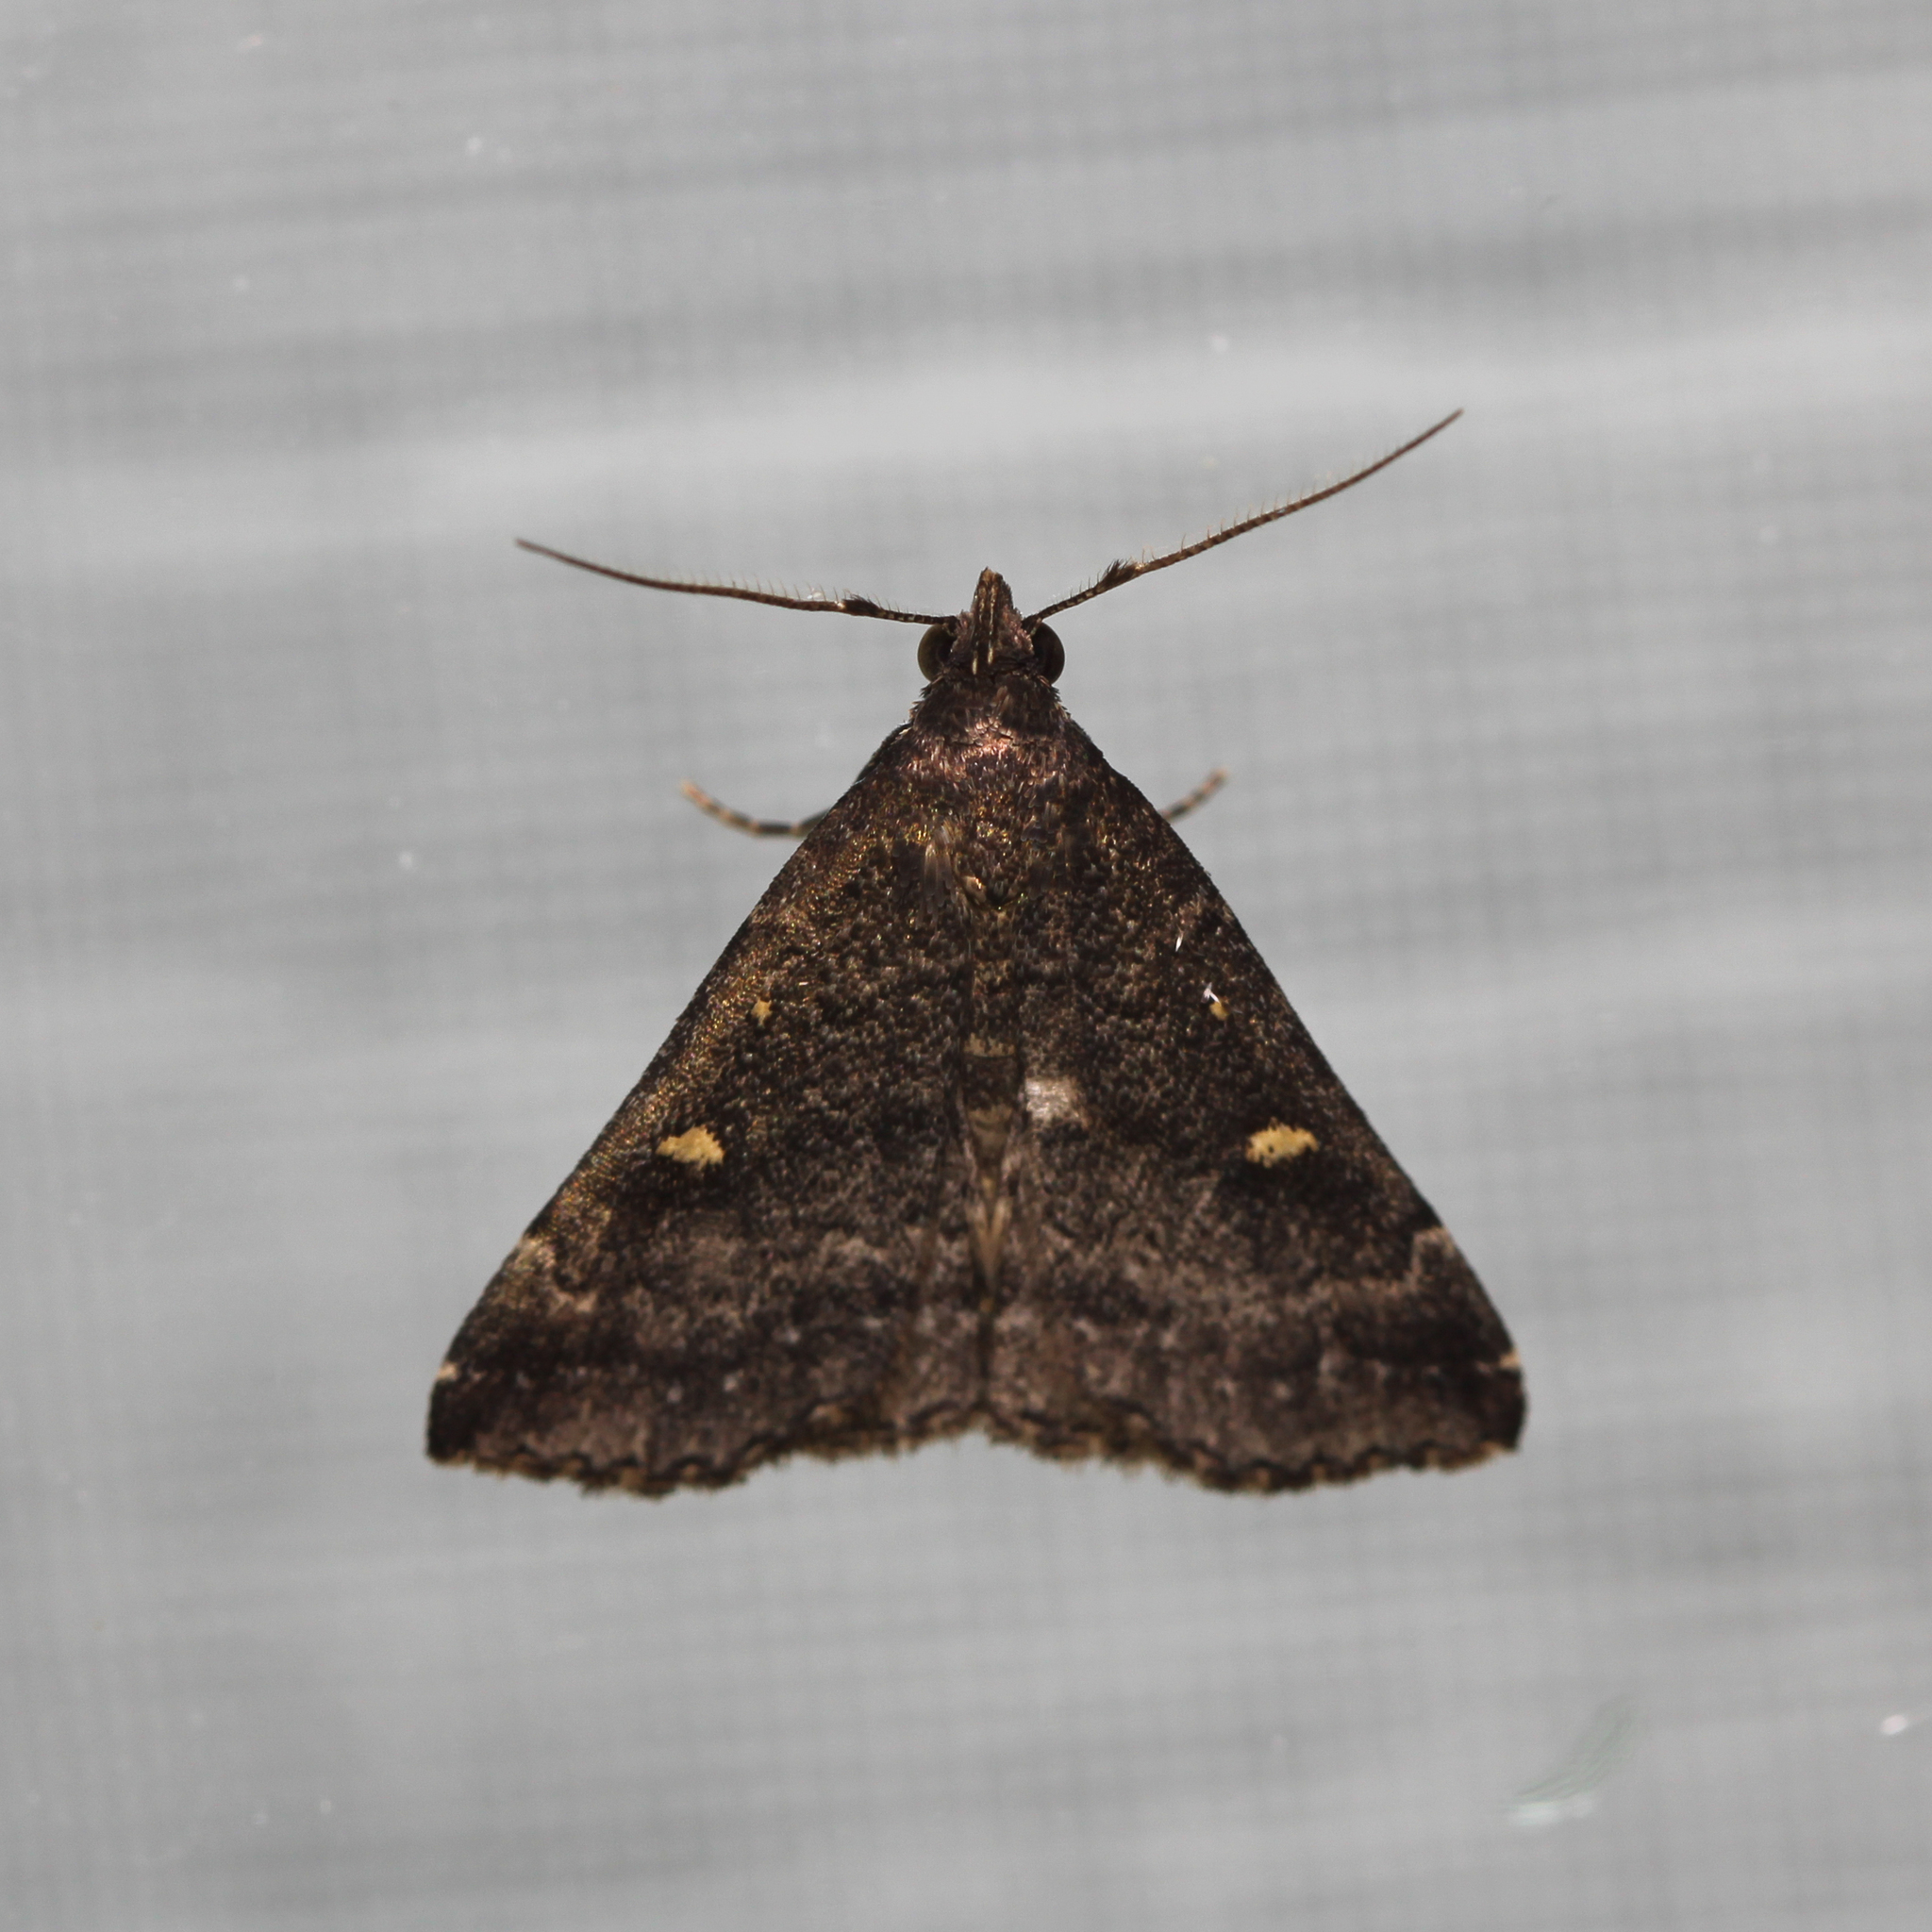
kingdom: Animalia
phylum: Arthropoda
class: Insecta
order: Lepidoptera
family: Erebidae
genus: Tetanolita
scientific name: Tetanolita mynesalis
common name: Smoky tetanolita moth
